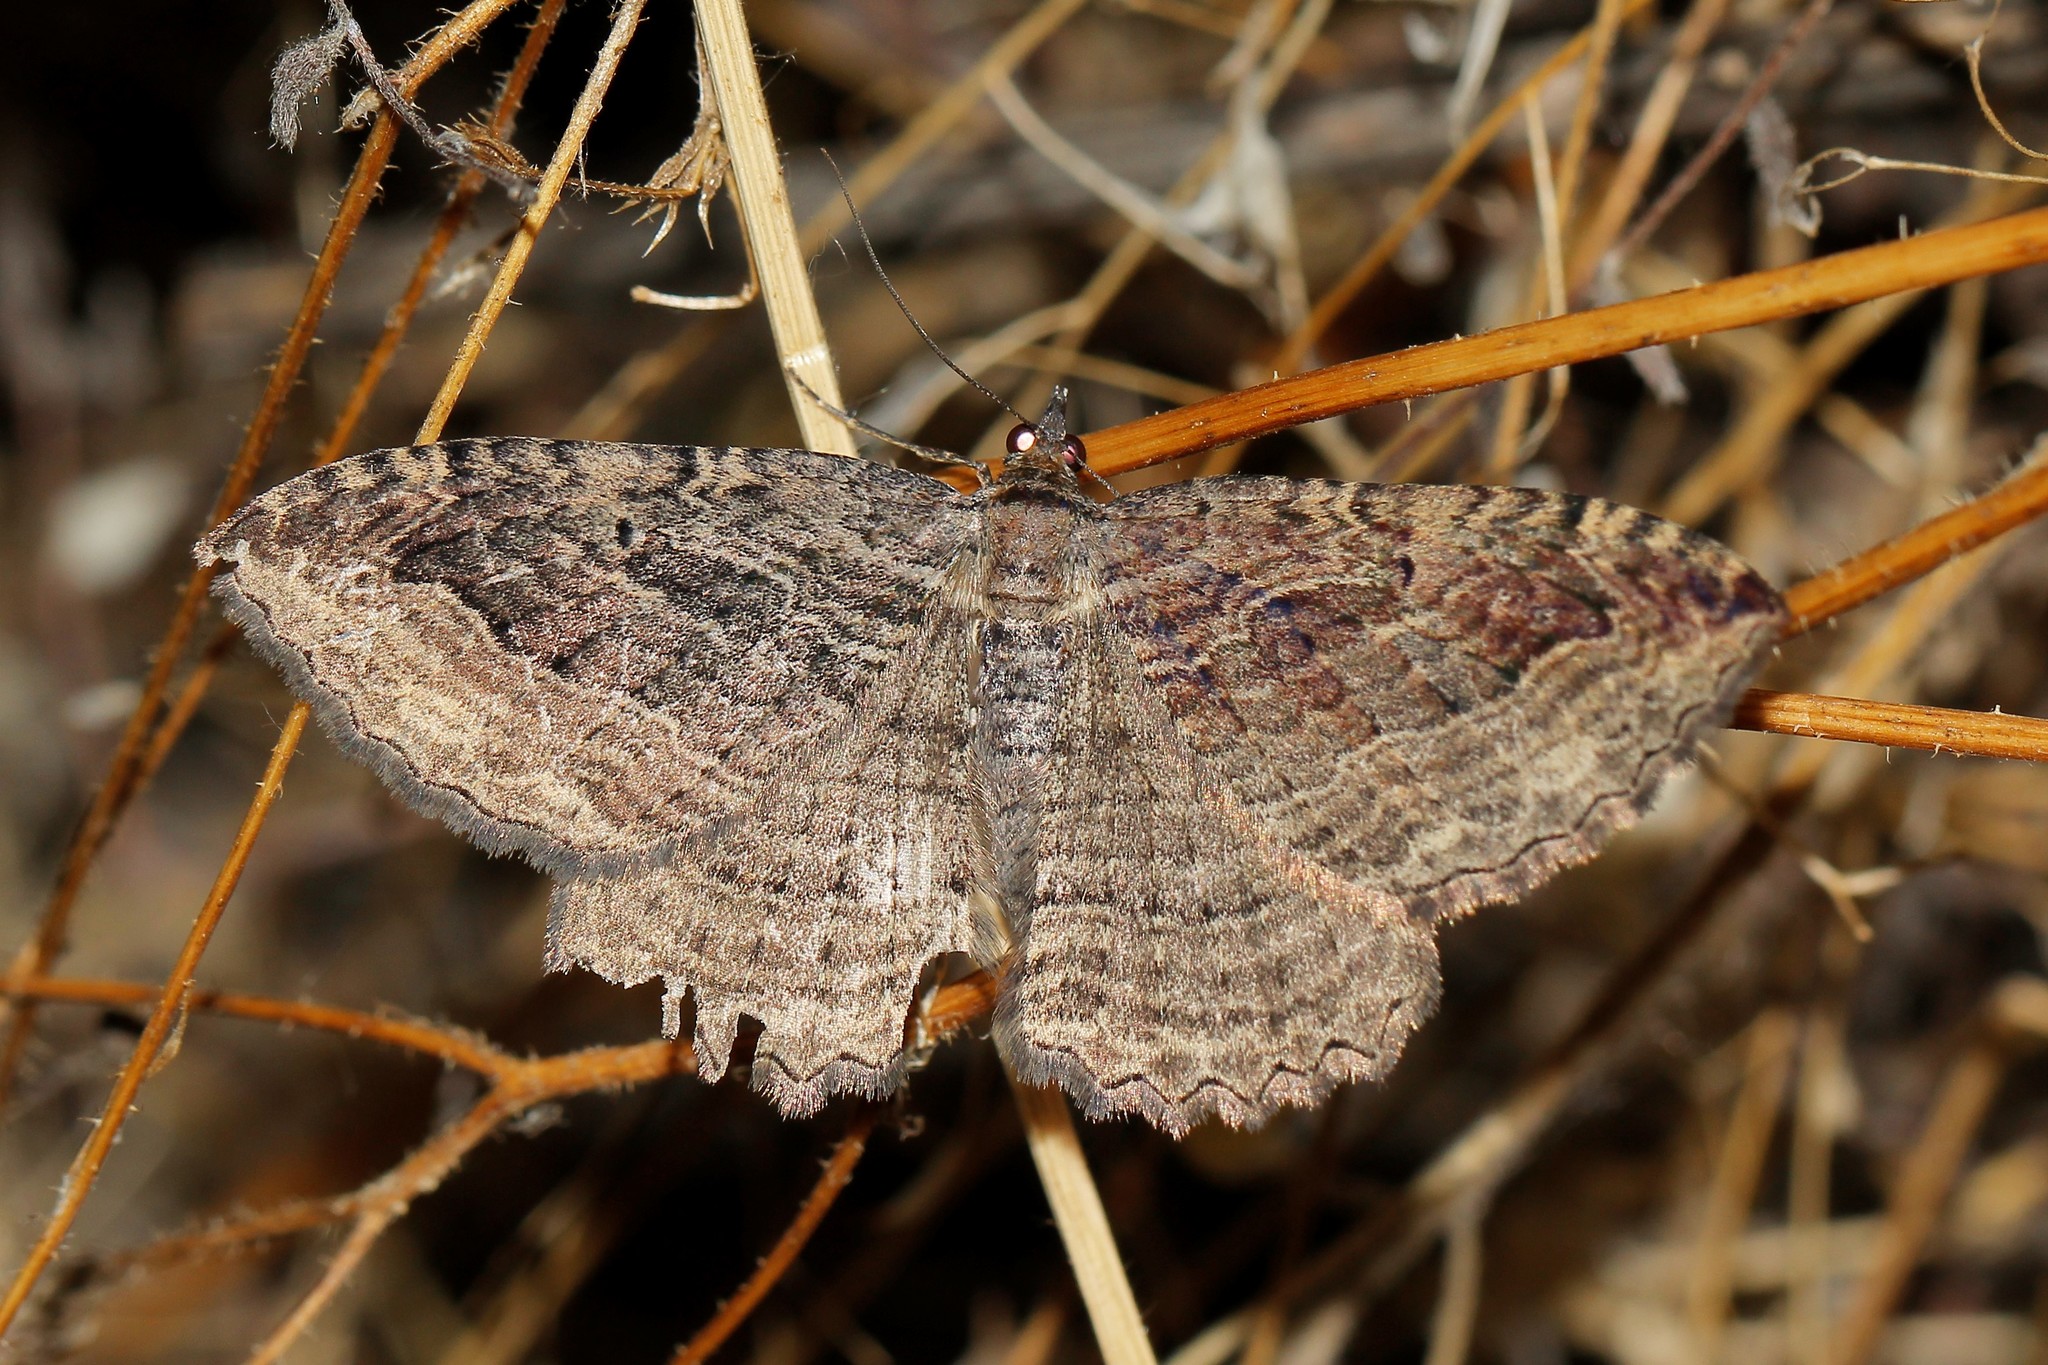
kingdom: Animalia
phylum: Arthropoda
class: Insecta
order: Lepidoptera
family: Geometridae
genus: Philereme
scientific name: Philereme transversata
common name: Dark umber
